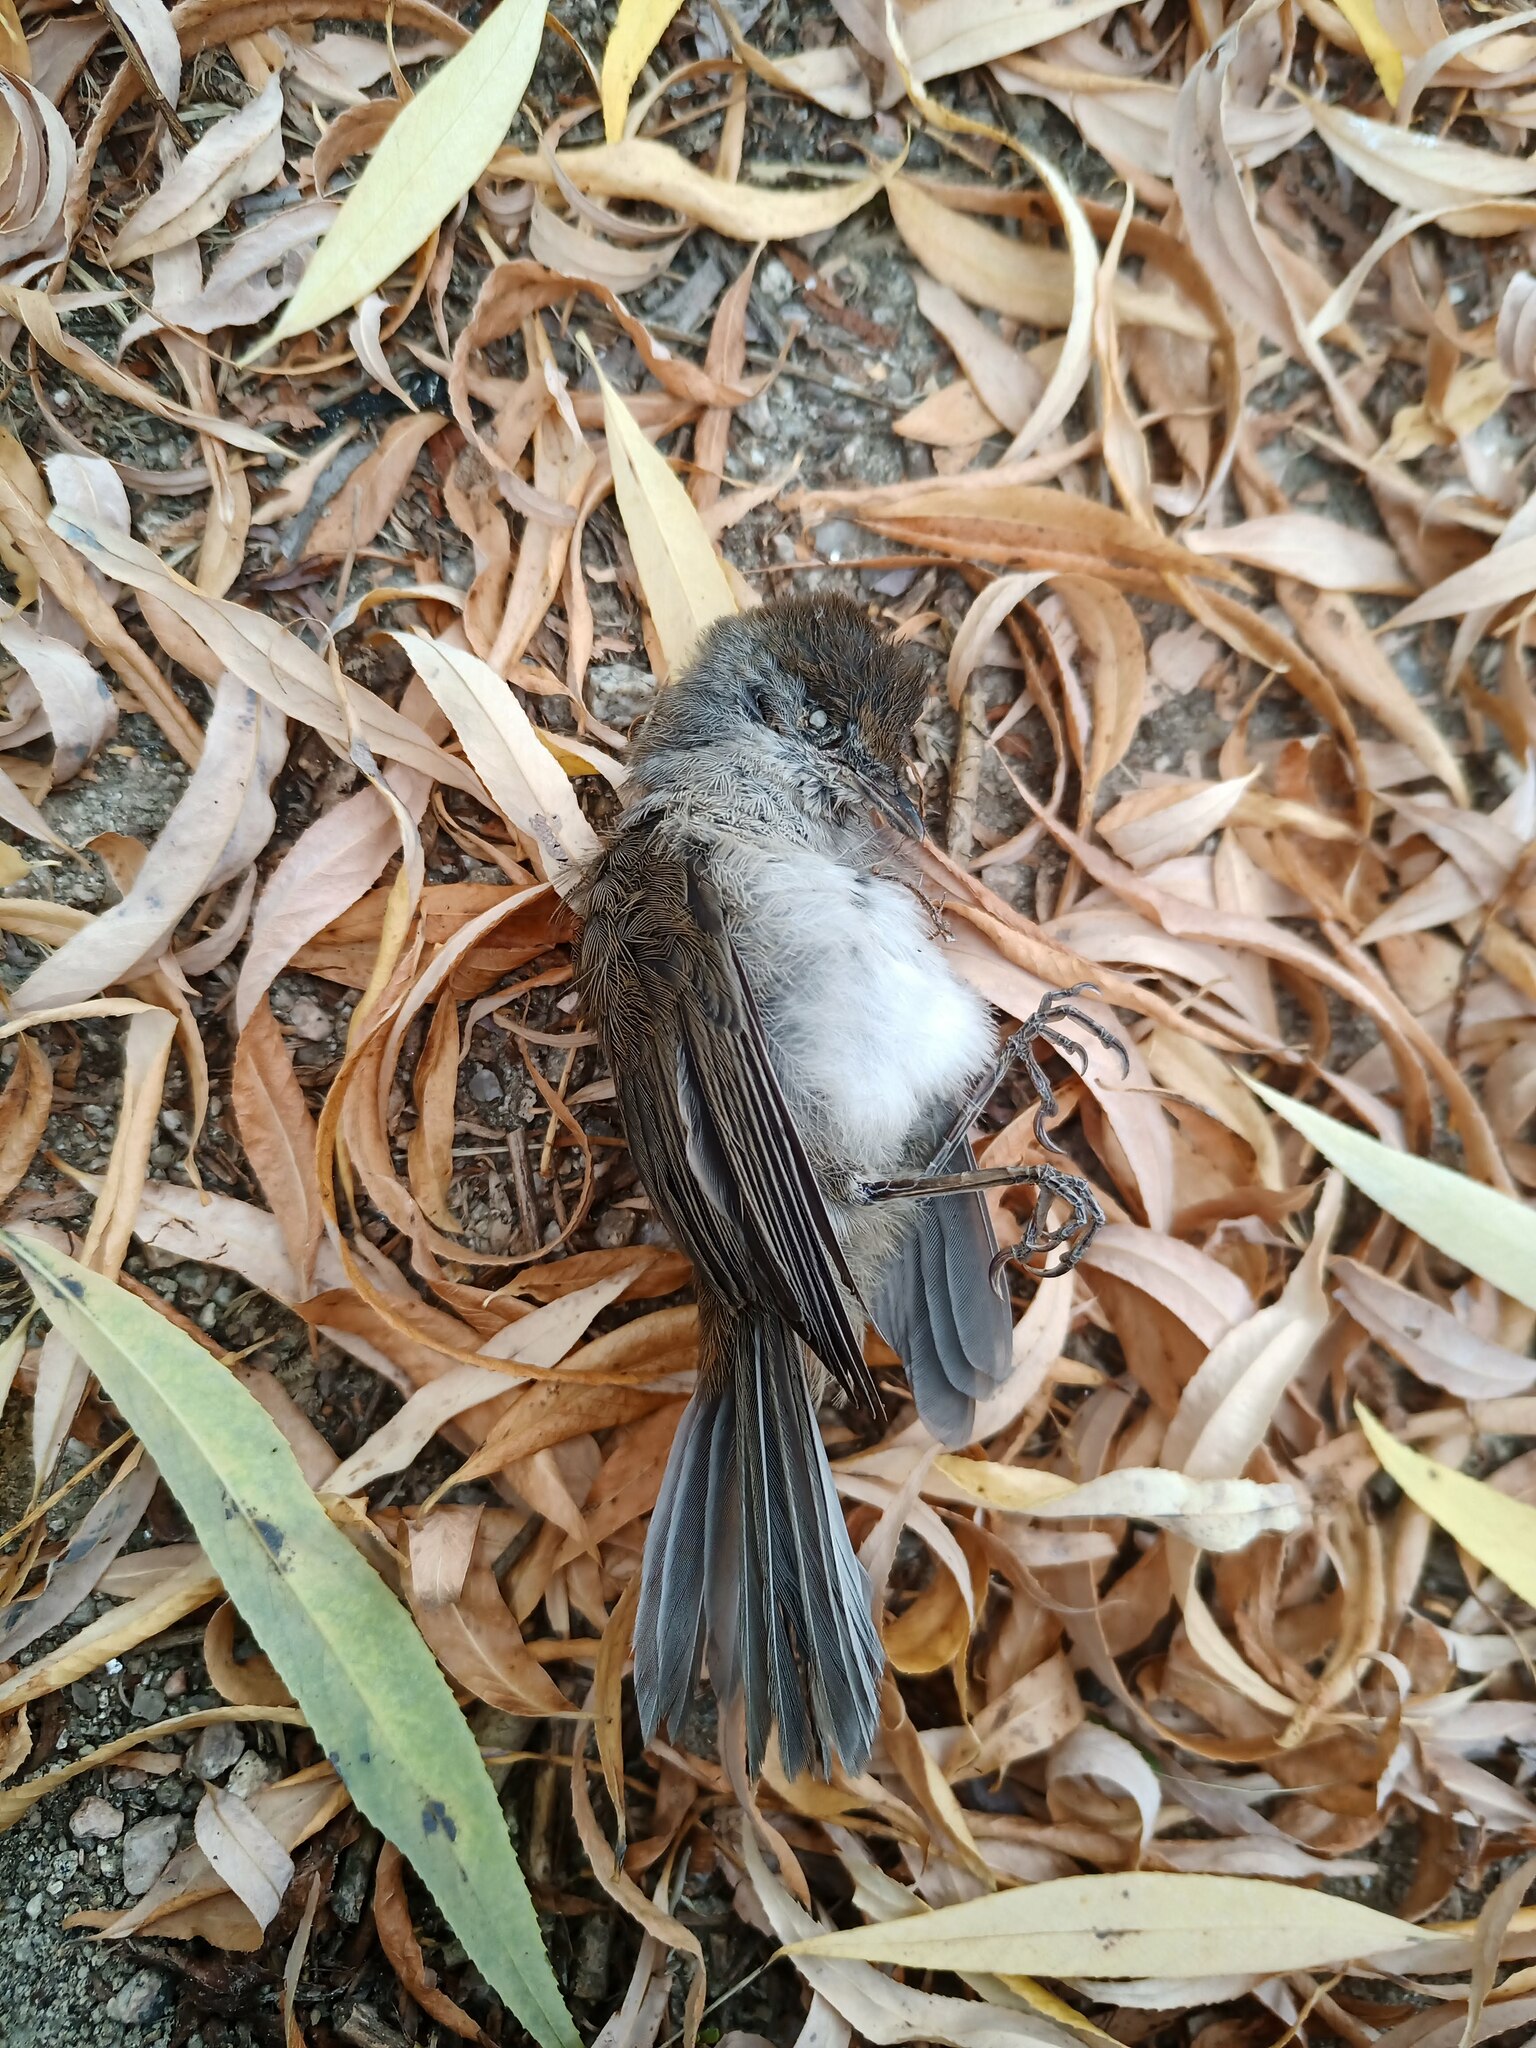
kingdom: Animalia
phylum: Chordata
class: Aves
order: Passeriformes
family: Sylviidae
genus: Sylvia
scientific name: Sylvia atricapilla
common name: Eurasian blackcap
